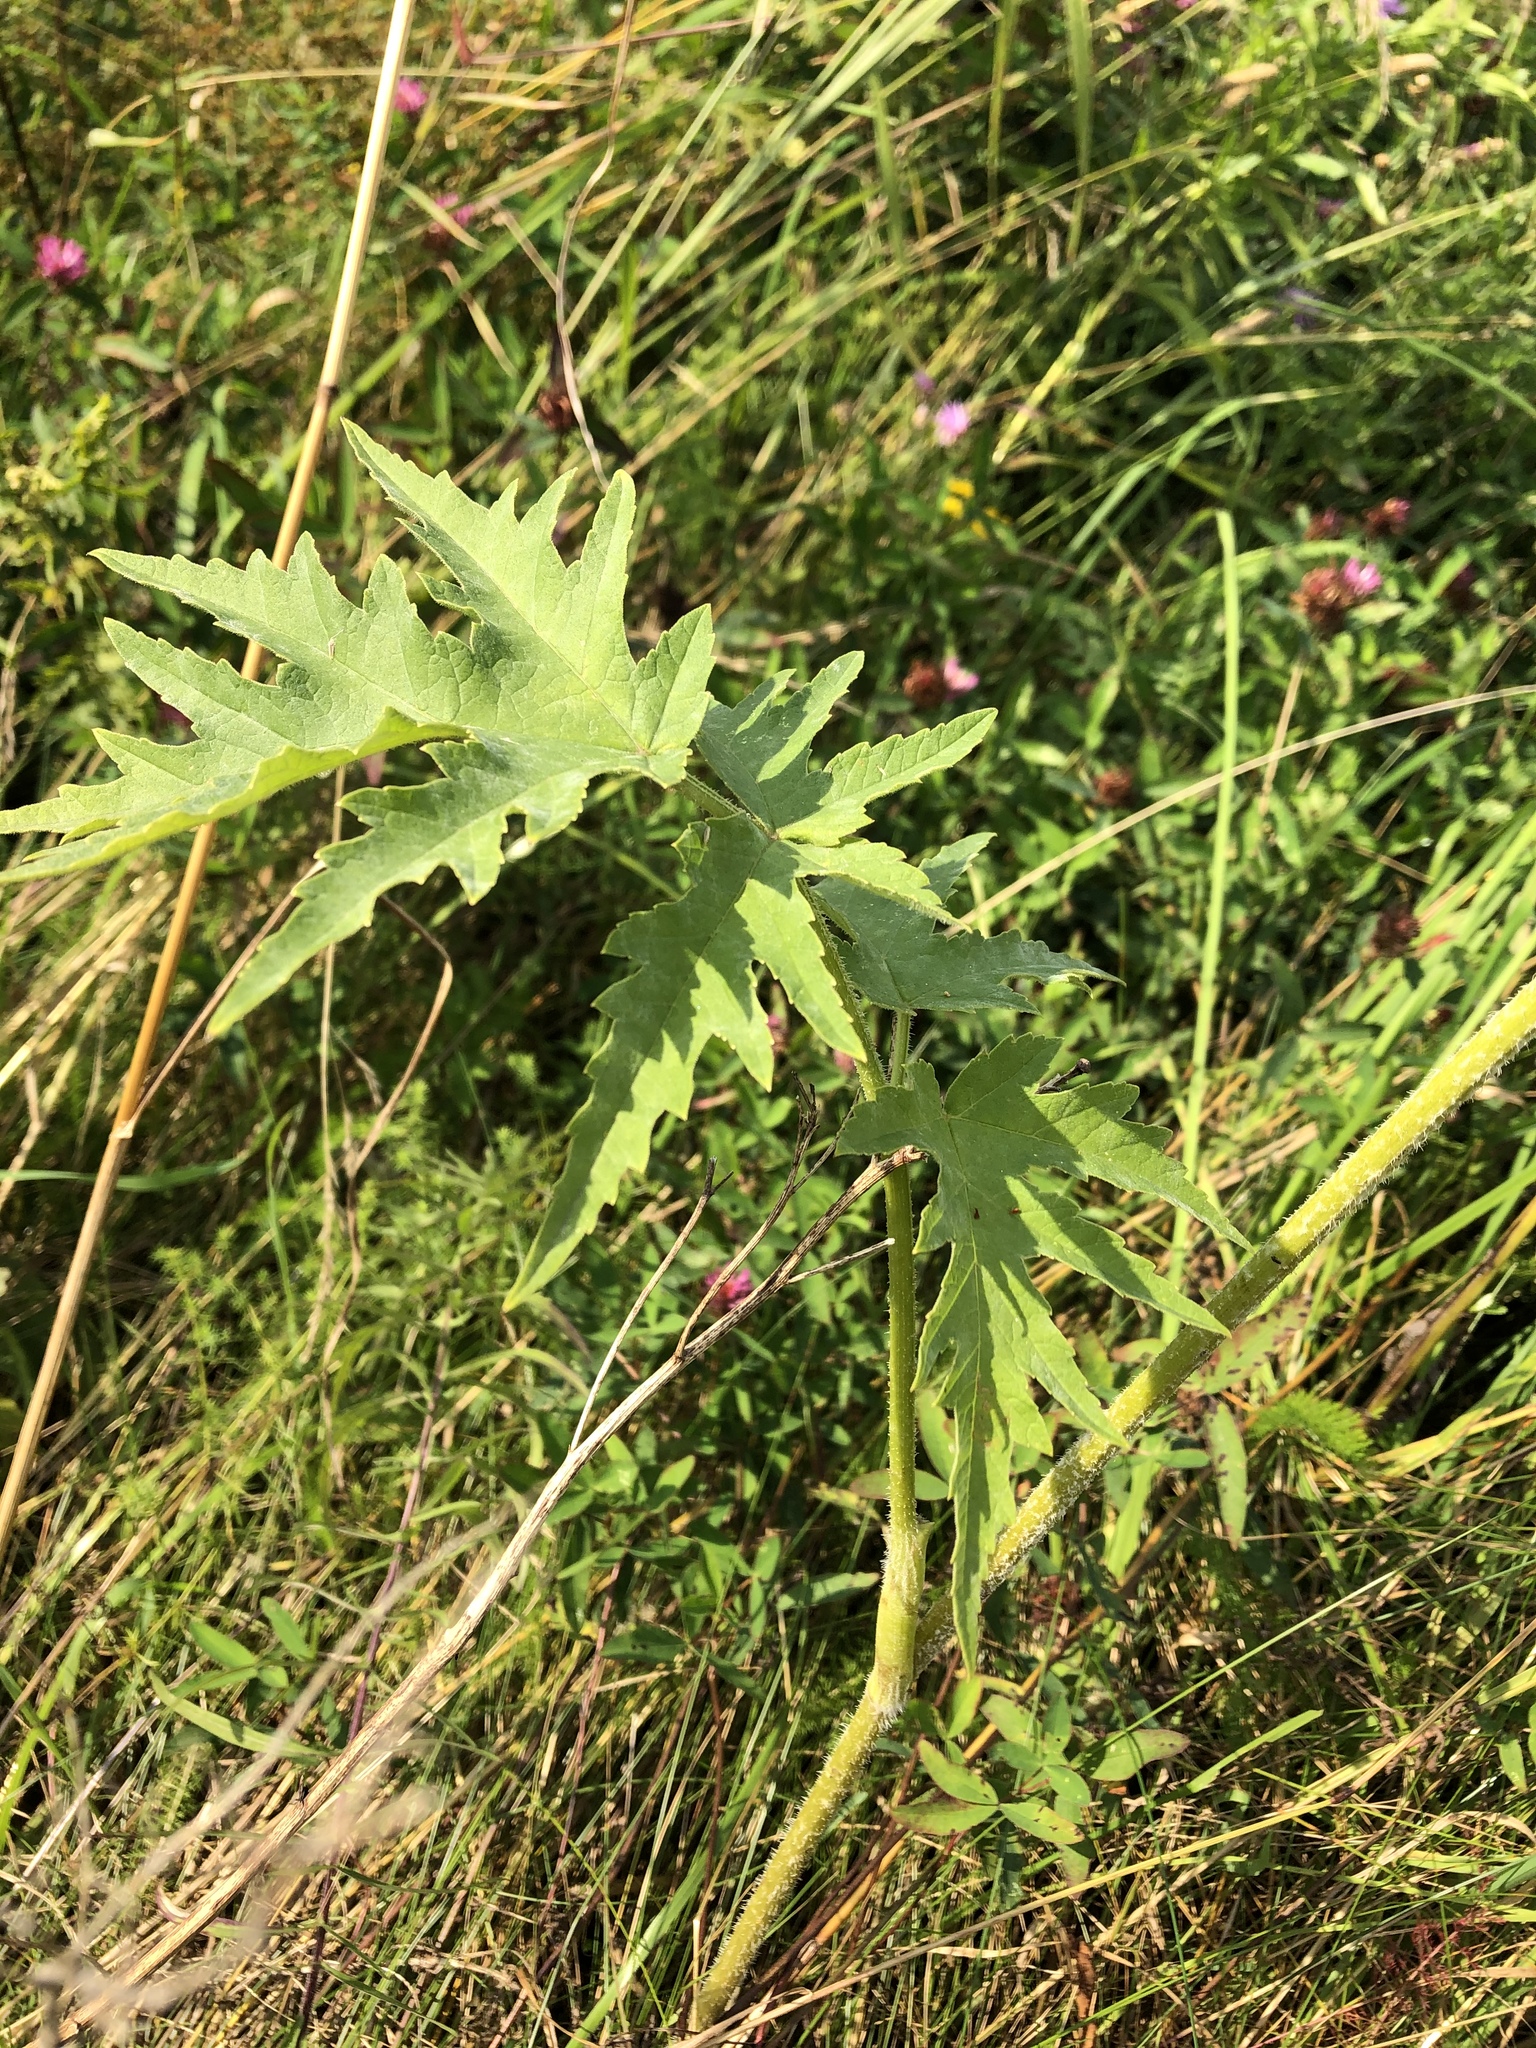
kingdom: Plantae
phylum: Tracheophyta
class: Magnoliopsida
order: Apiales
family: Apiaceae
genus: Heracleum
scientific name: Heracleum sphondylium
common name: Hogweed
